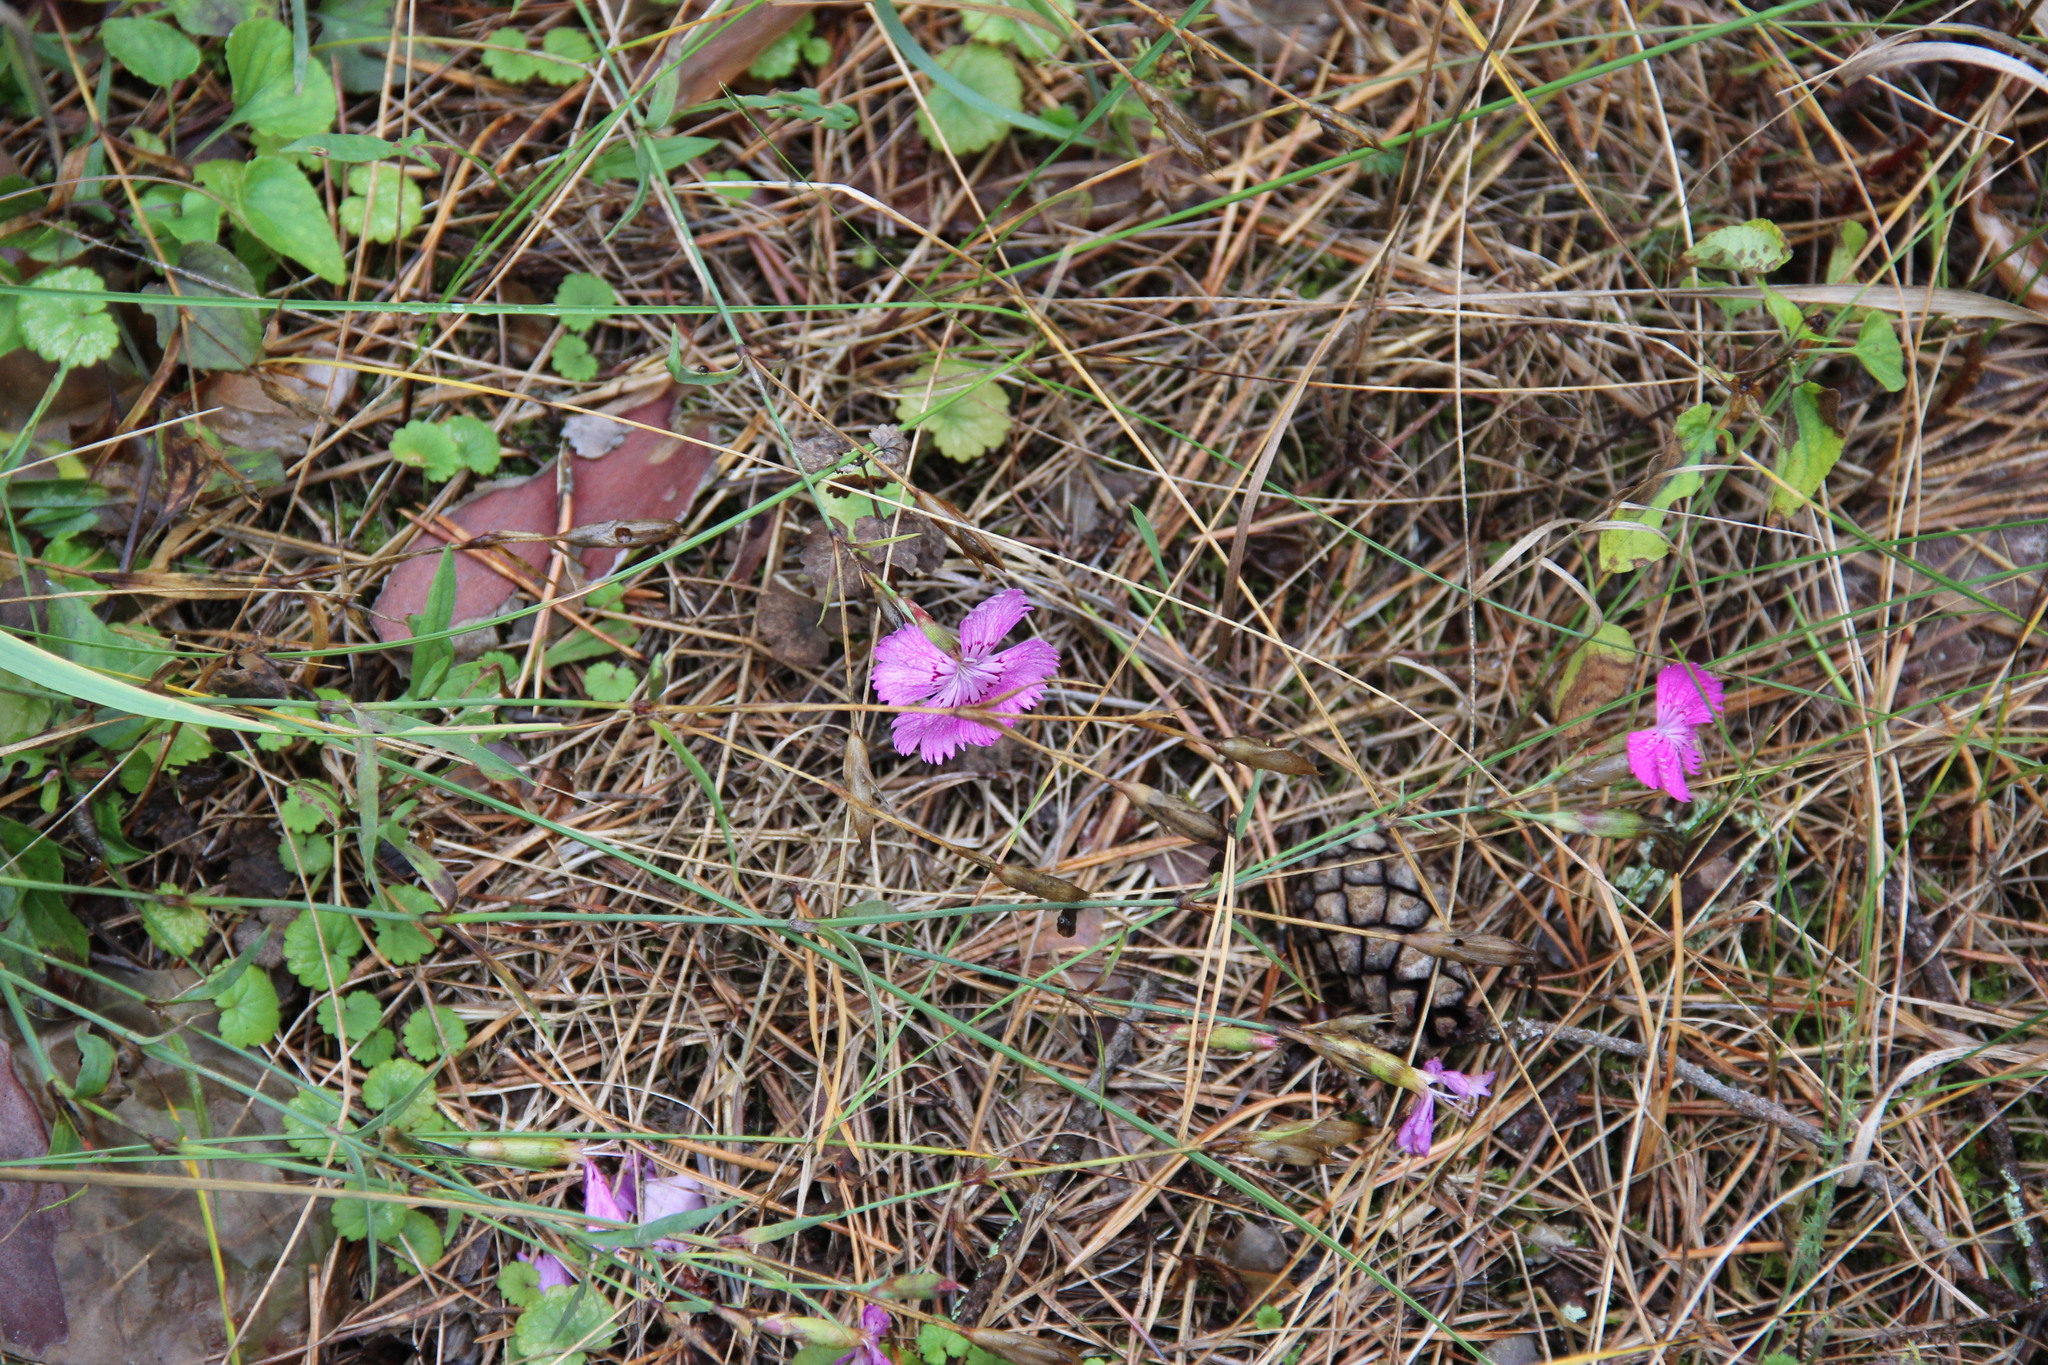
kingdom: Plantae
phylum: Tracheophyta
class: Magnoliopsida
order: Caryophyllales
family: Caryophyllaceae
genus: Dianthus
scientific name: Dianthus chinensis
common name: Rainbow pink
